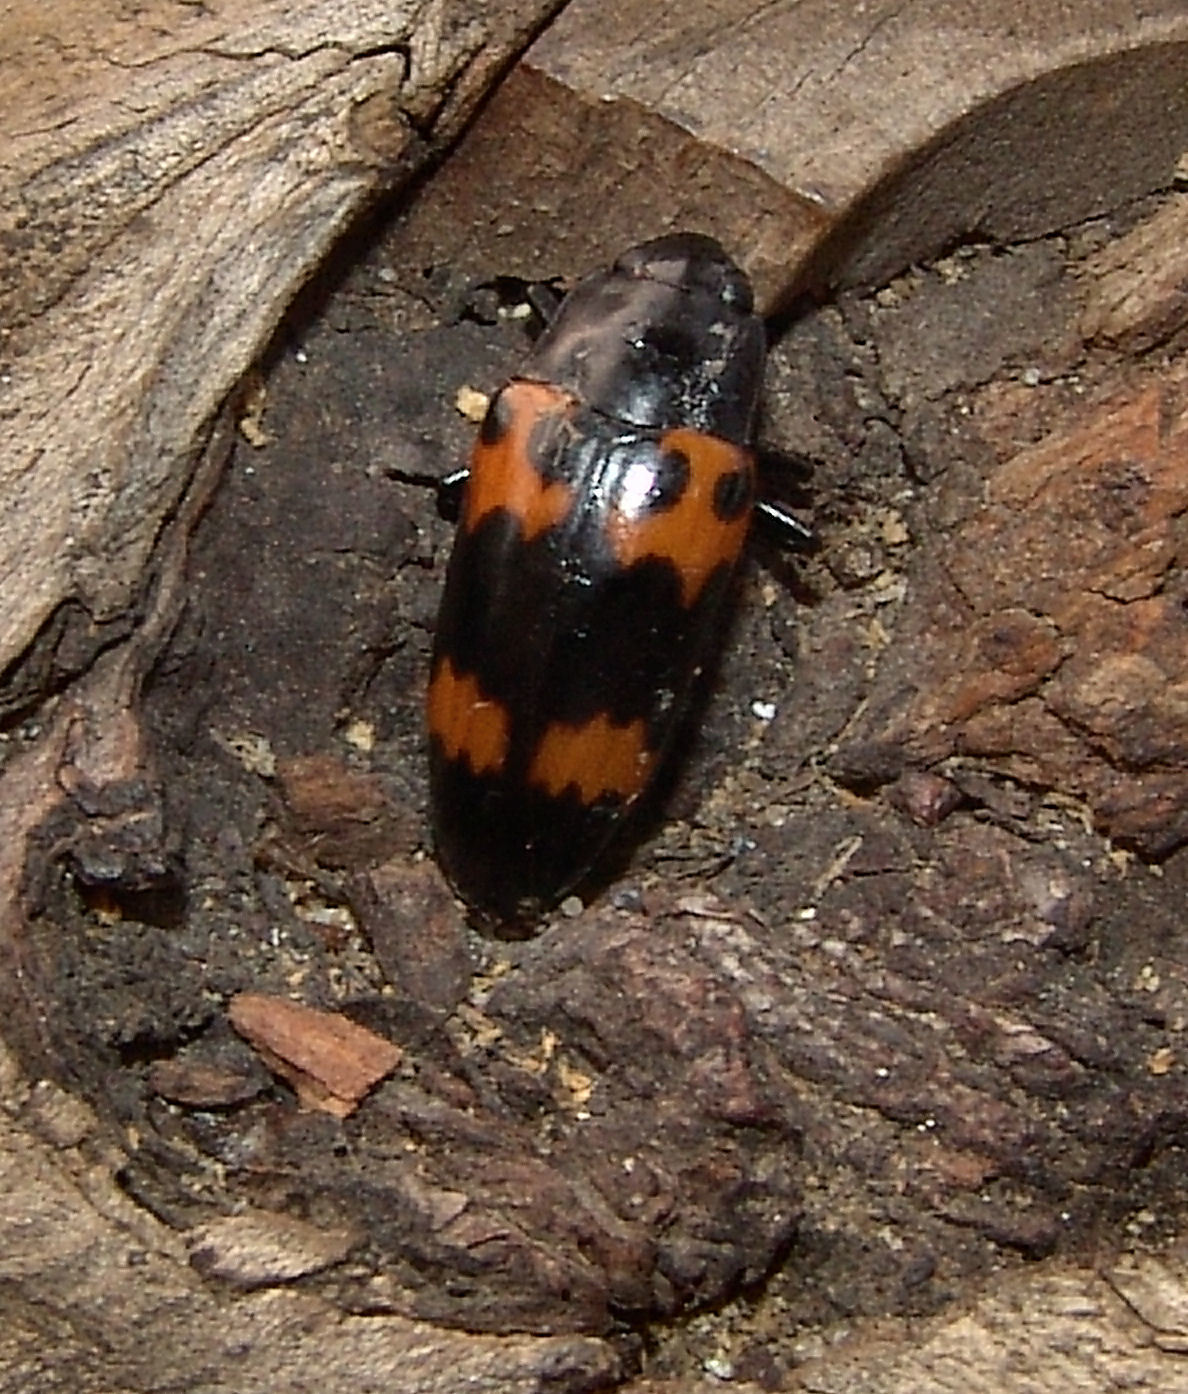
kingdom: Animalia
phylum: Arthropoda
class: Insecta
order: Coleoptera
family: Erotylidae
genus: Megalodacne
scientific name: Megalodacne heros
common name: Pleasing fungus beetle
